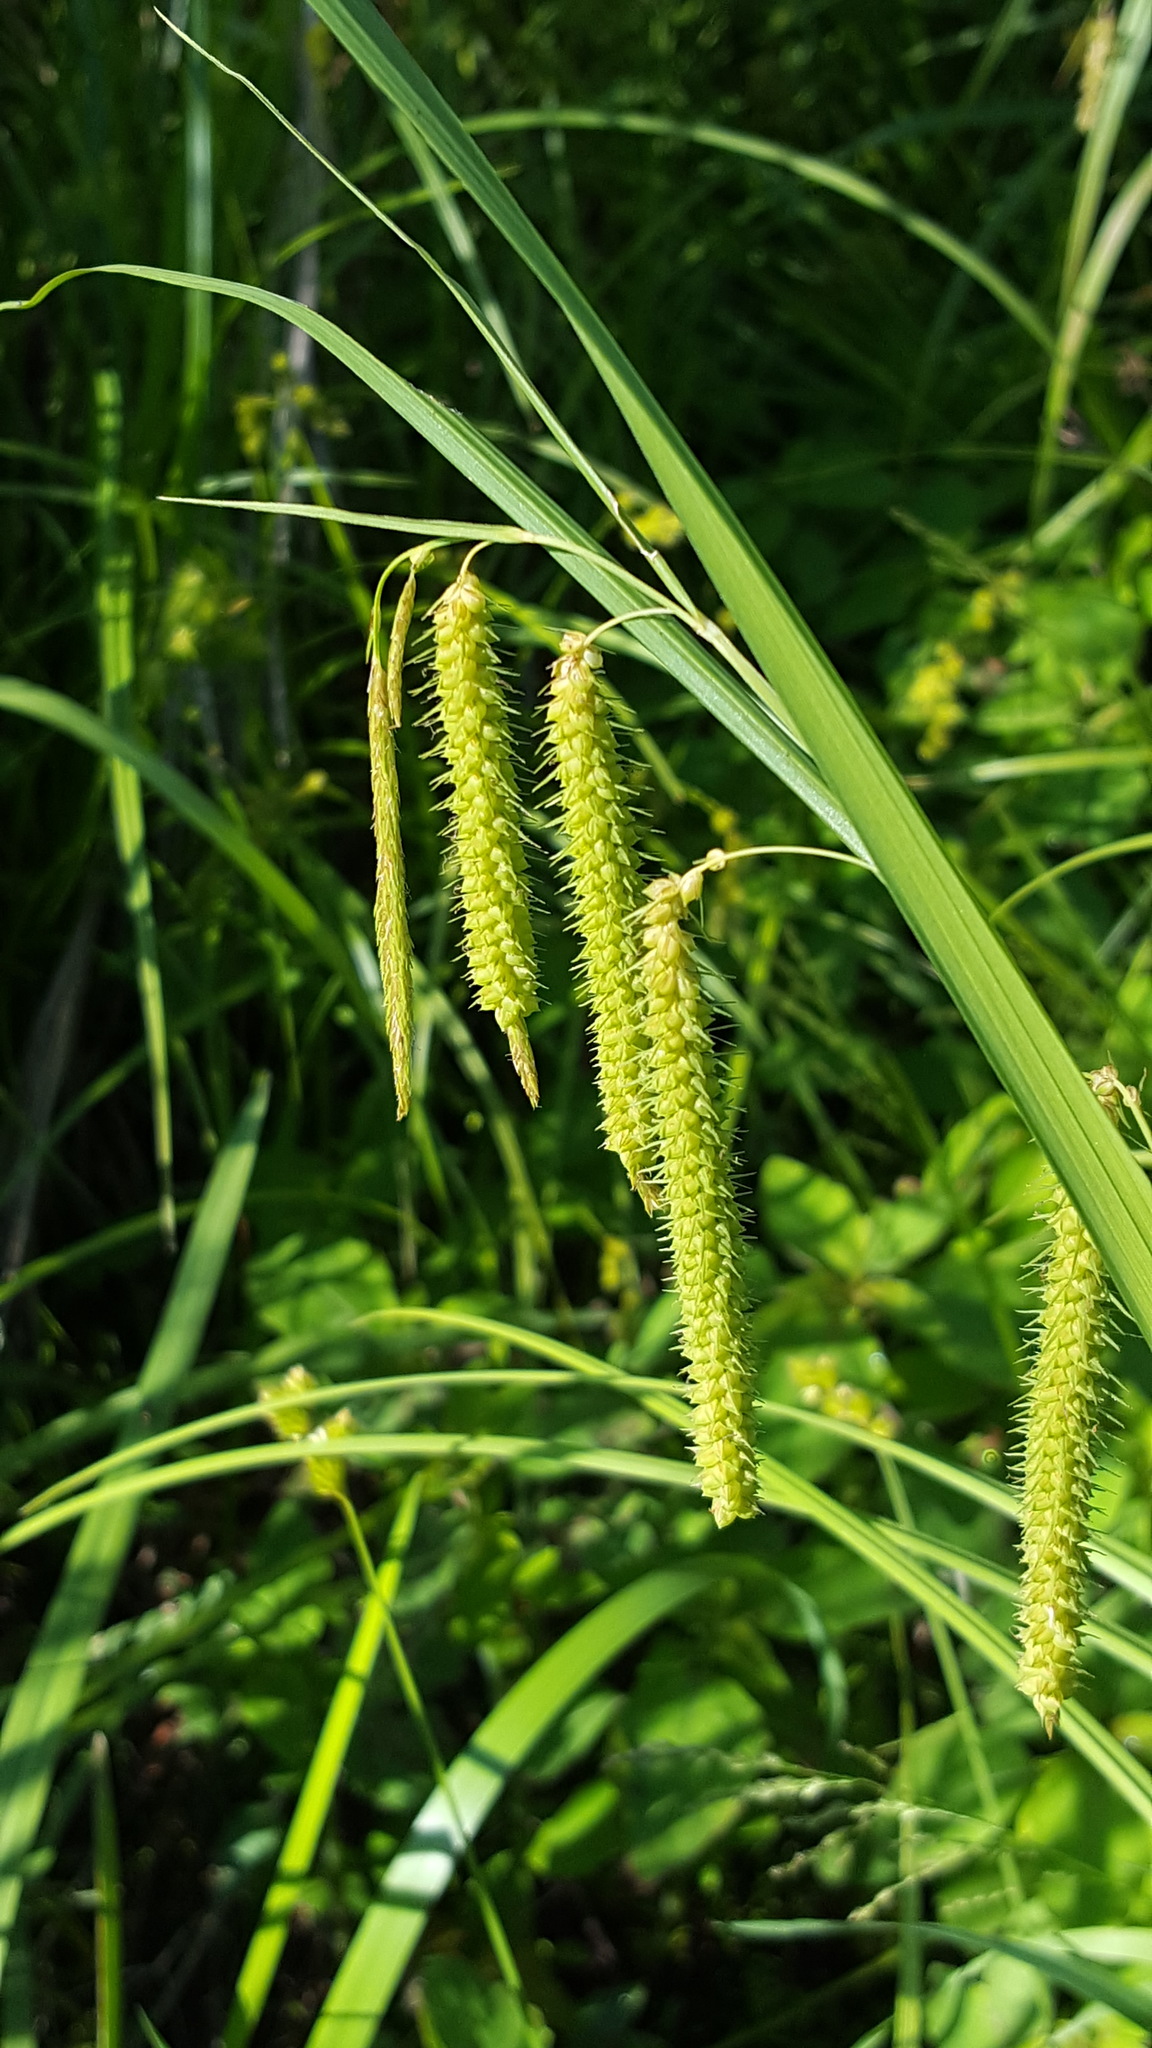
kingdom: Plantae
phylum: Tracheophyta
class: Liliopsida
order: Poales
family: Cyperaceae
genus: Carex
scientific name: Carex gynandra
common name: Nodding sedge
